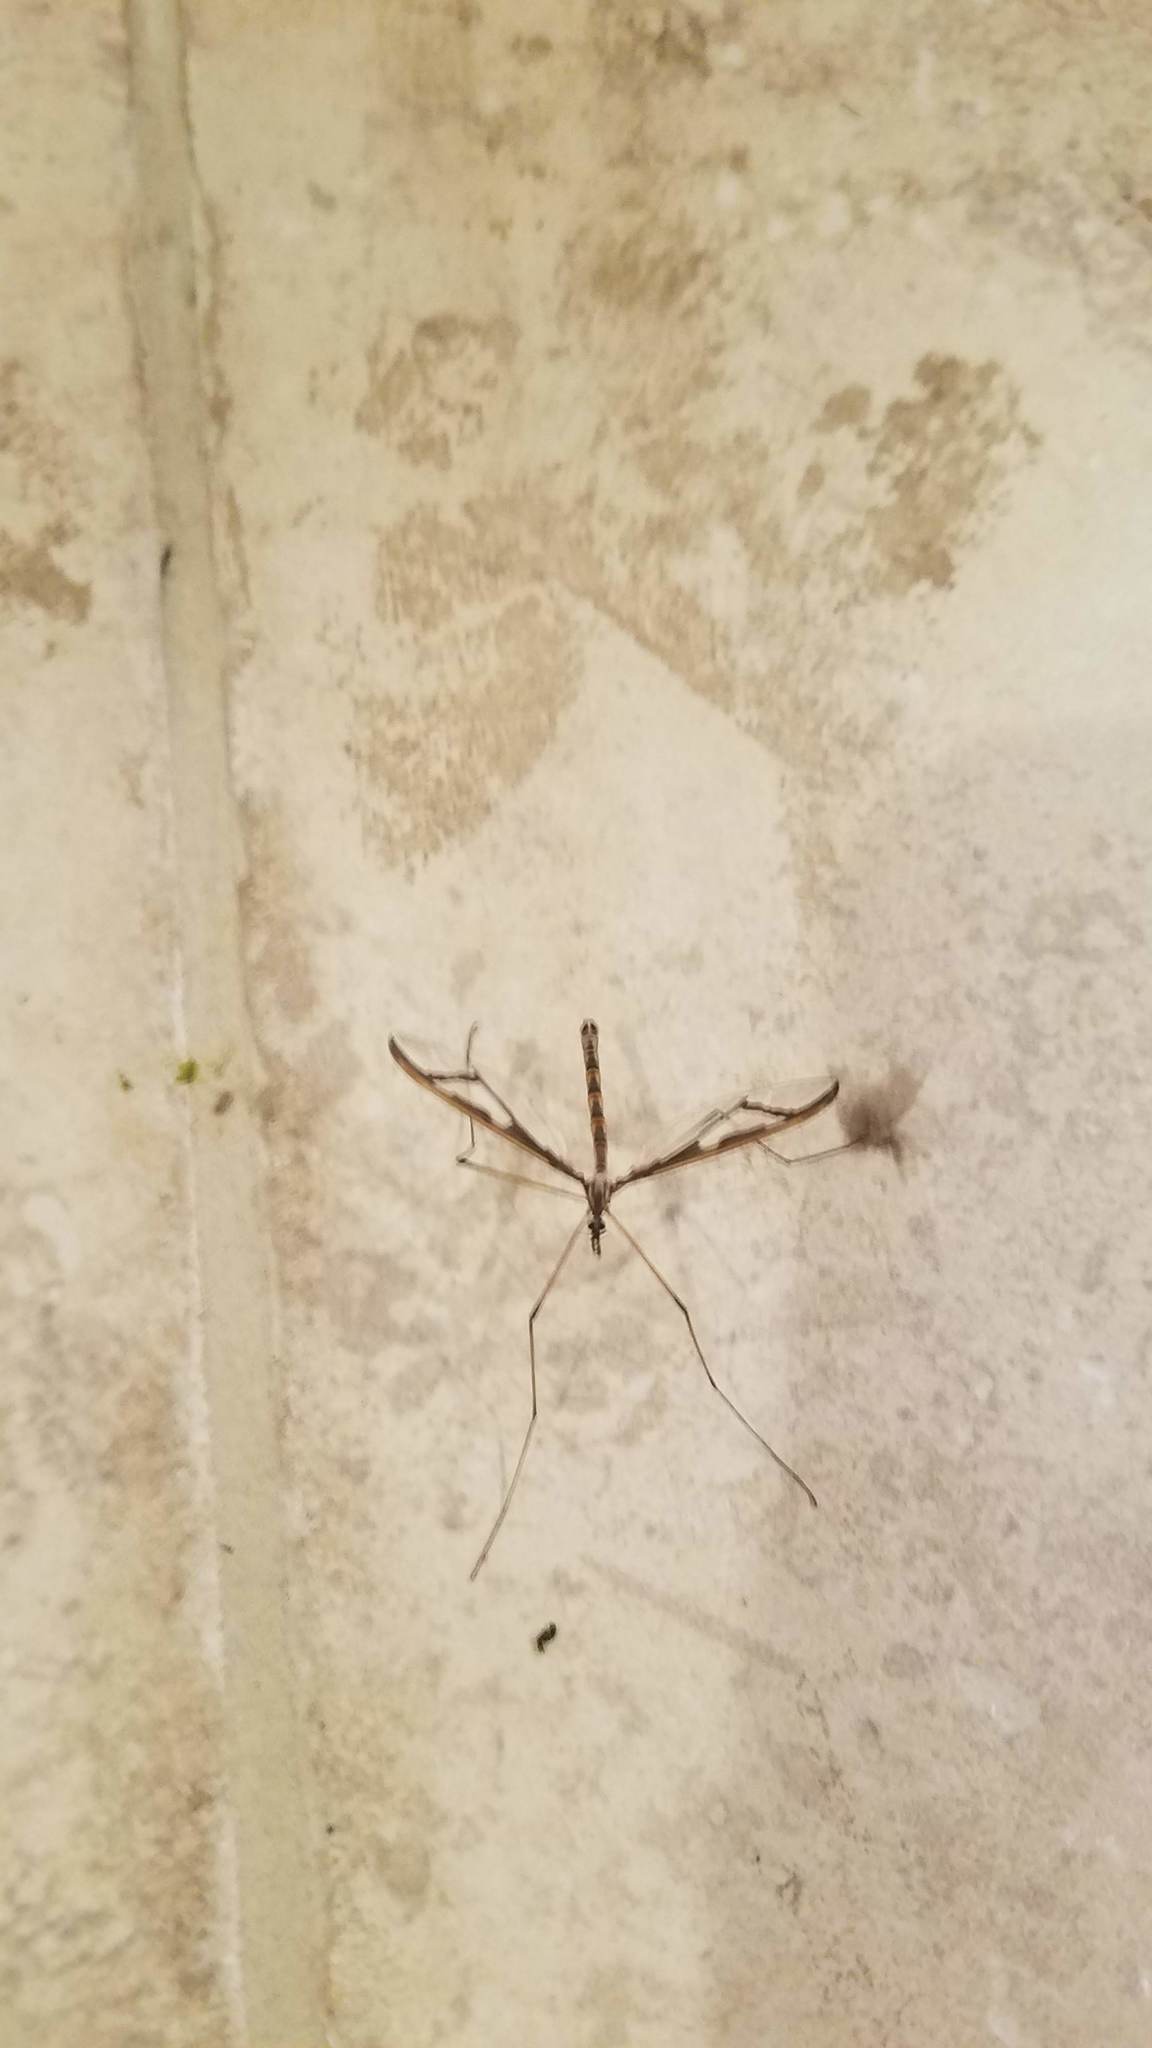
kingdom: Animalia
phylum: Arthropoda
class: Insecta
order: Diptera
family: Pediciidae
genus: Pedicia
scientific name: Pedicia albivitta
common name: Giant eastern crane fly
